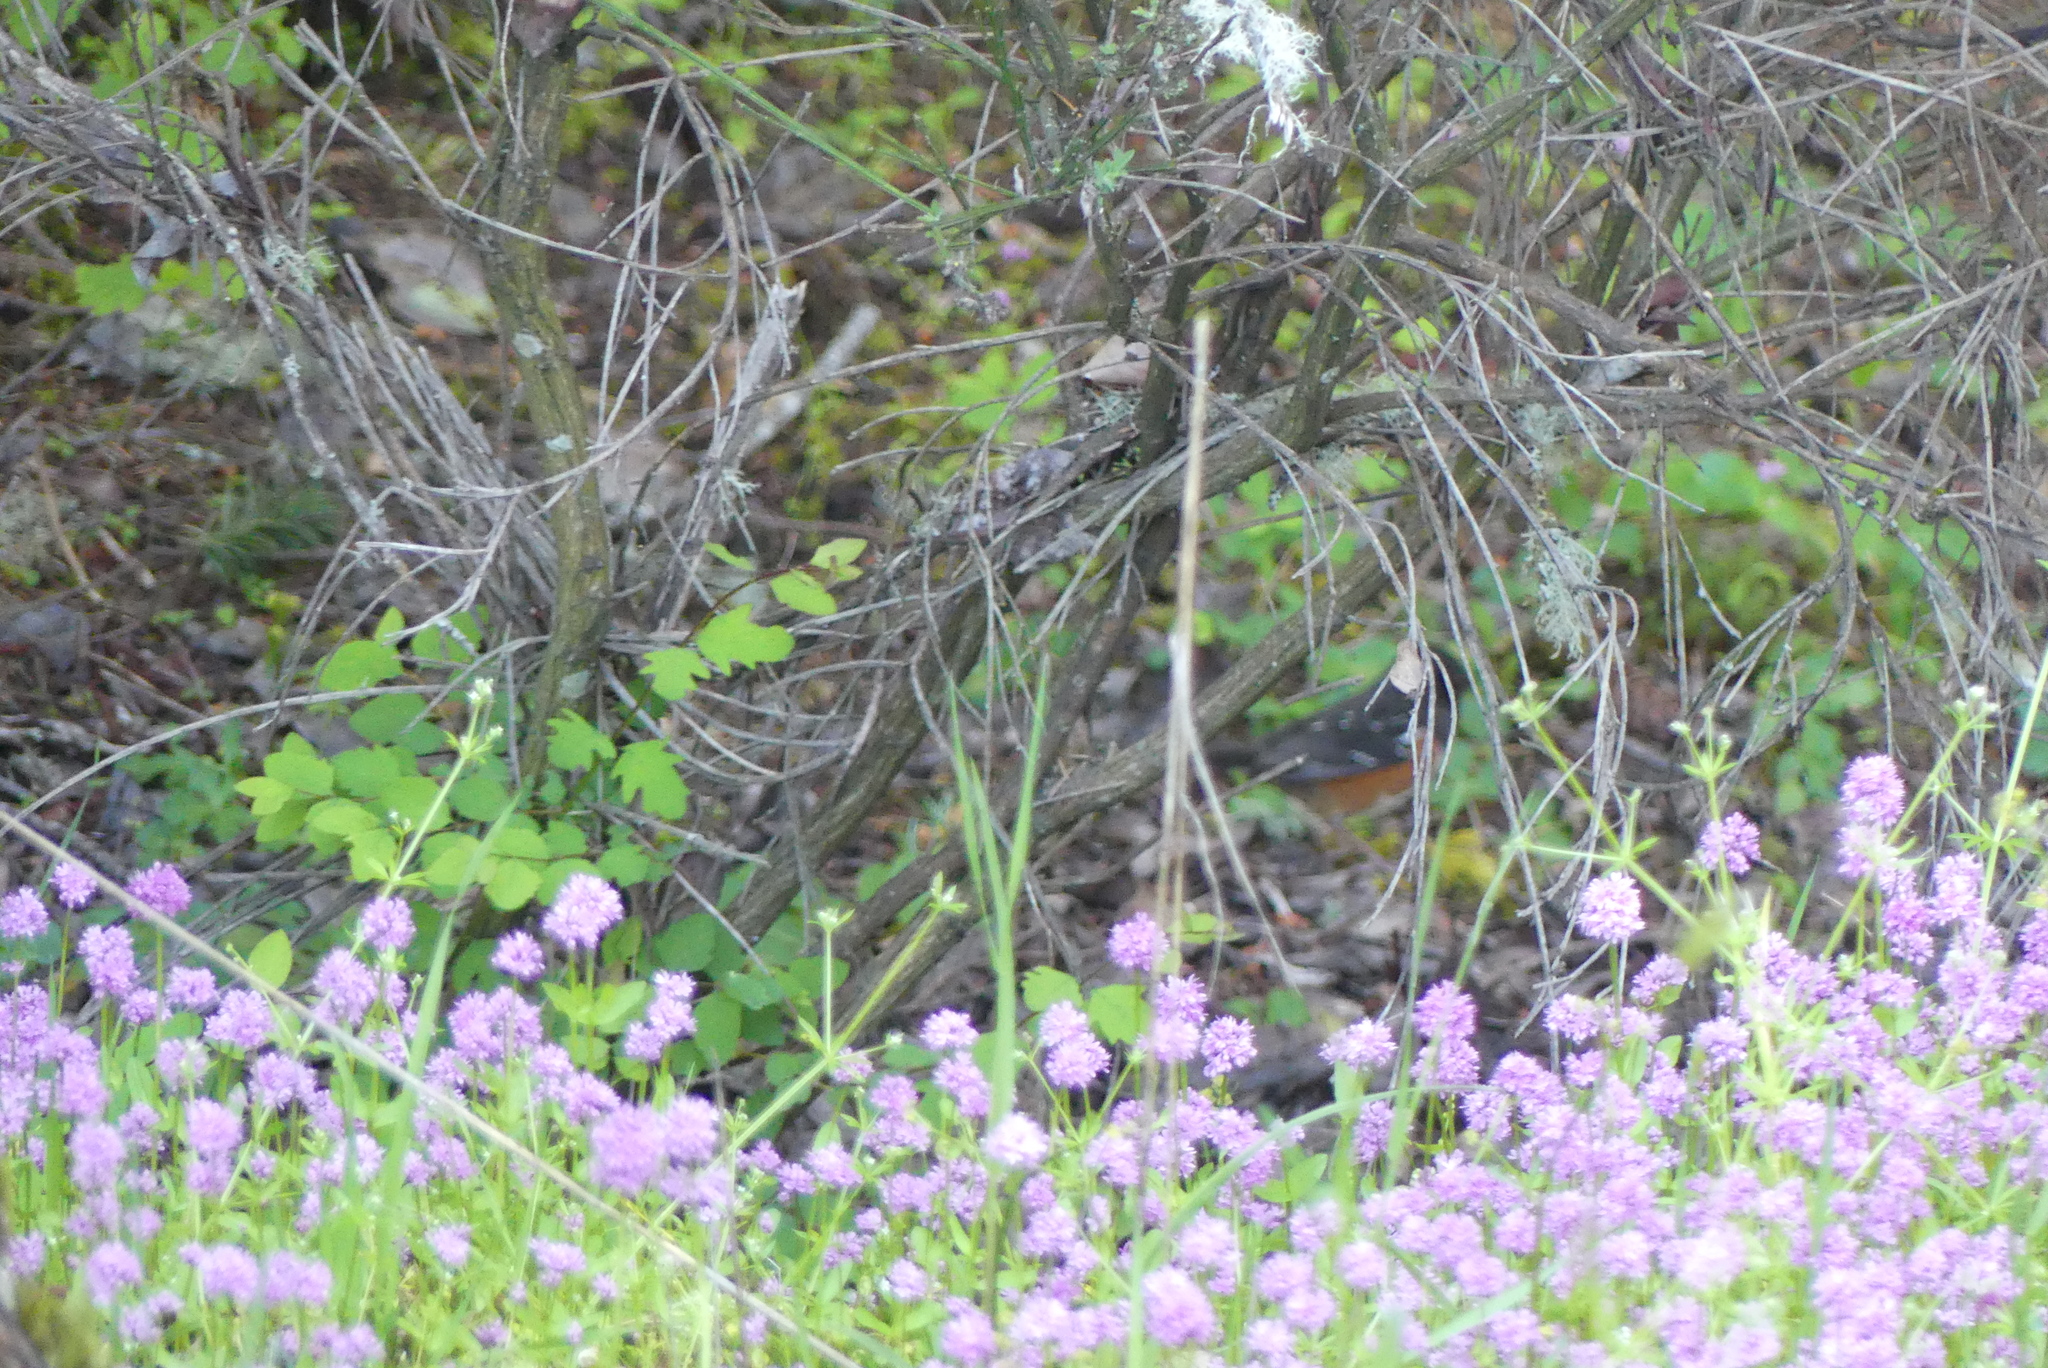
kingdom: Animalia
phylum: Chordata
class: Aves
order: Passeriformes
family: Passerellidae
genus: Pipilo
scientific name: Pipilo maculatus
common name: Spotted towhee
